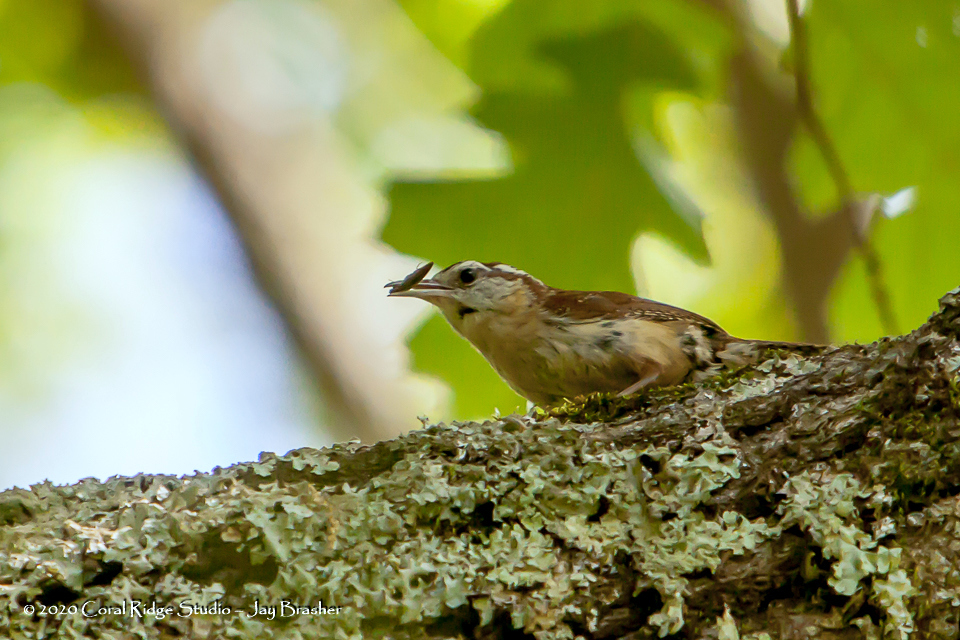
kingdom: Animalia
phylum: Chordata
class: Aves
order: Passeriformes
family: Troglodytidae
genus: Thryothorus
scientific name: Thryothorus ludovicianus
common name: Carolina wren
